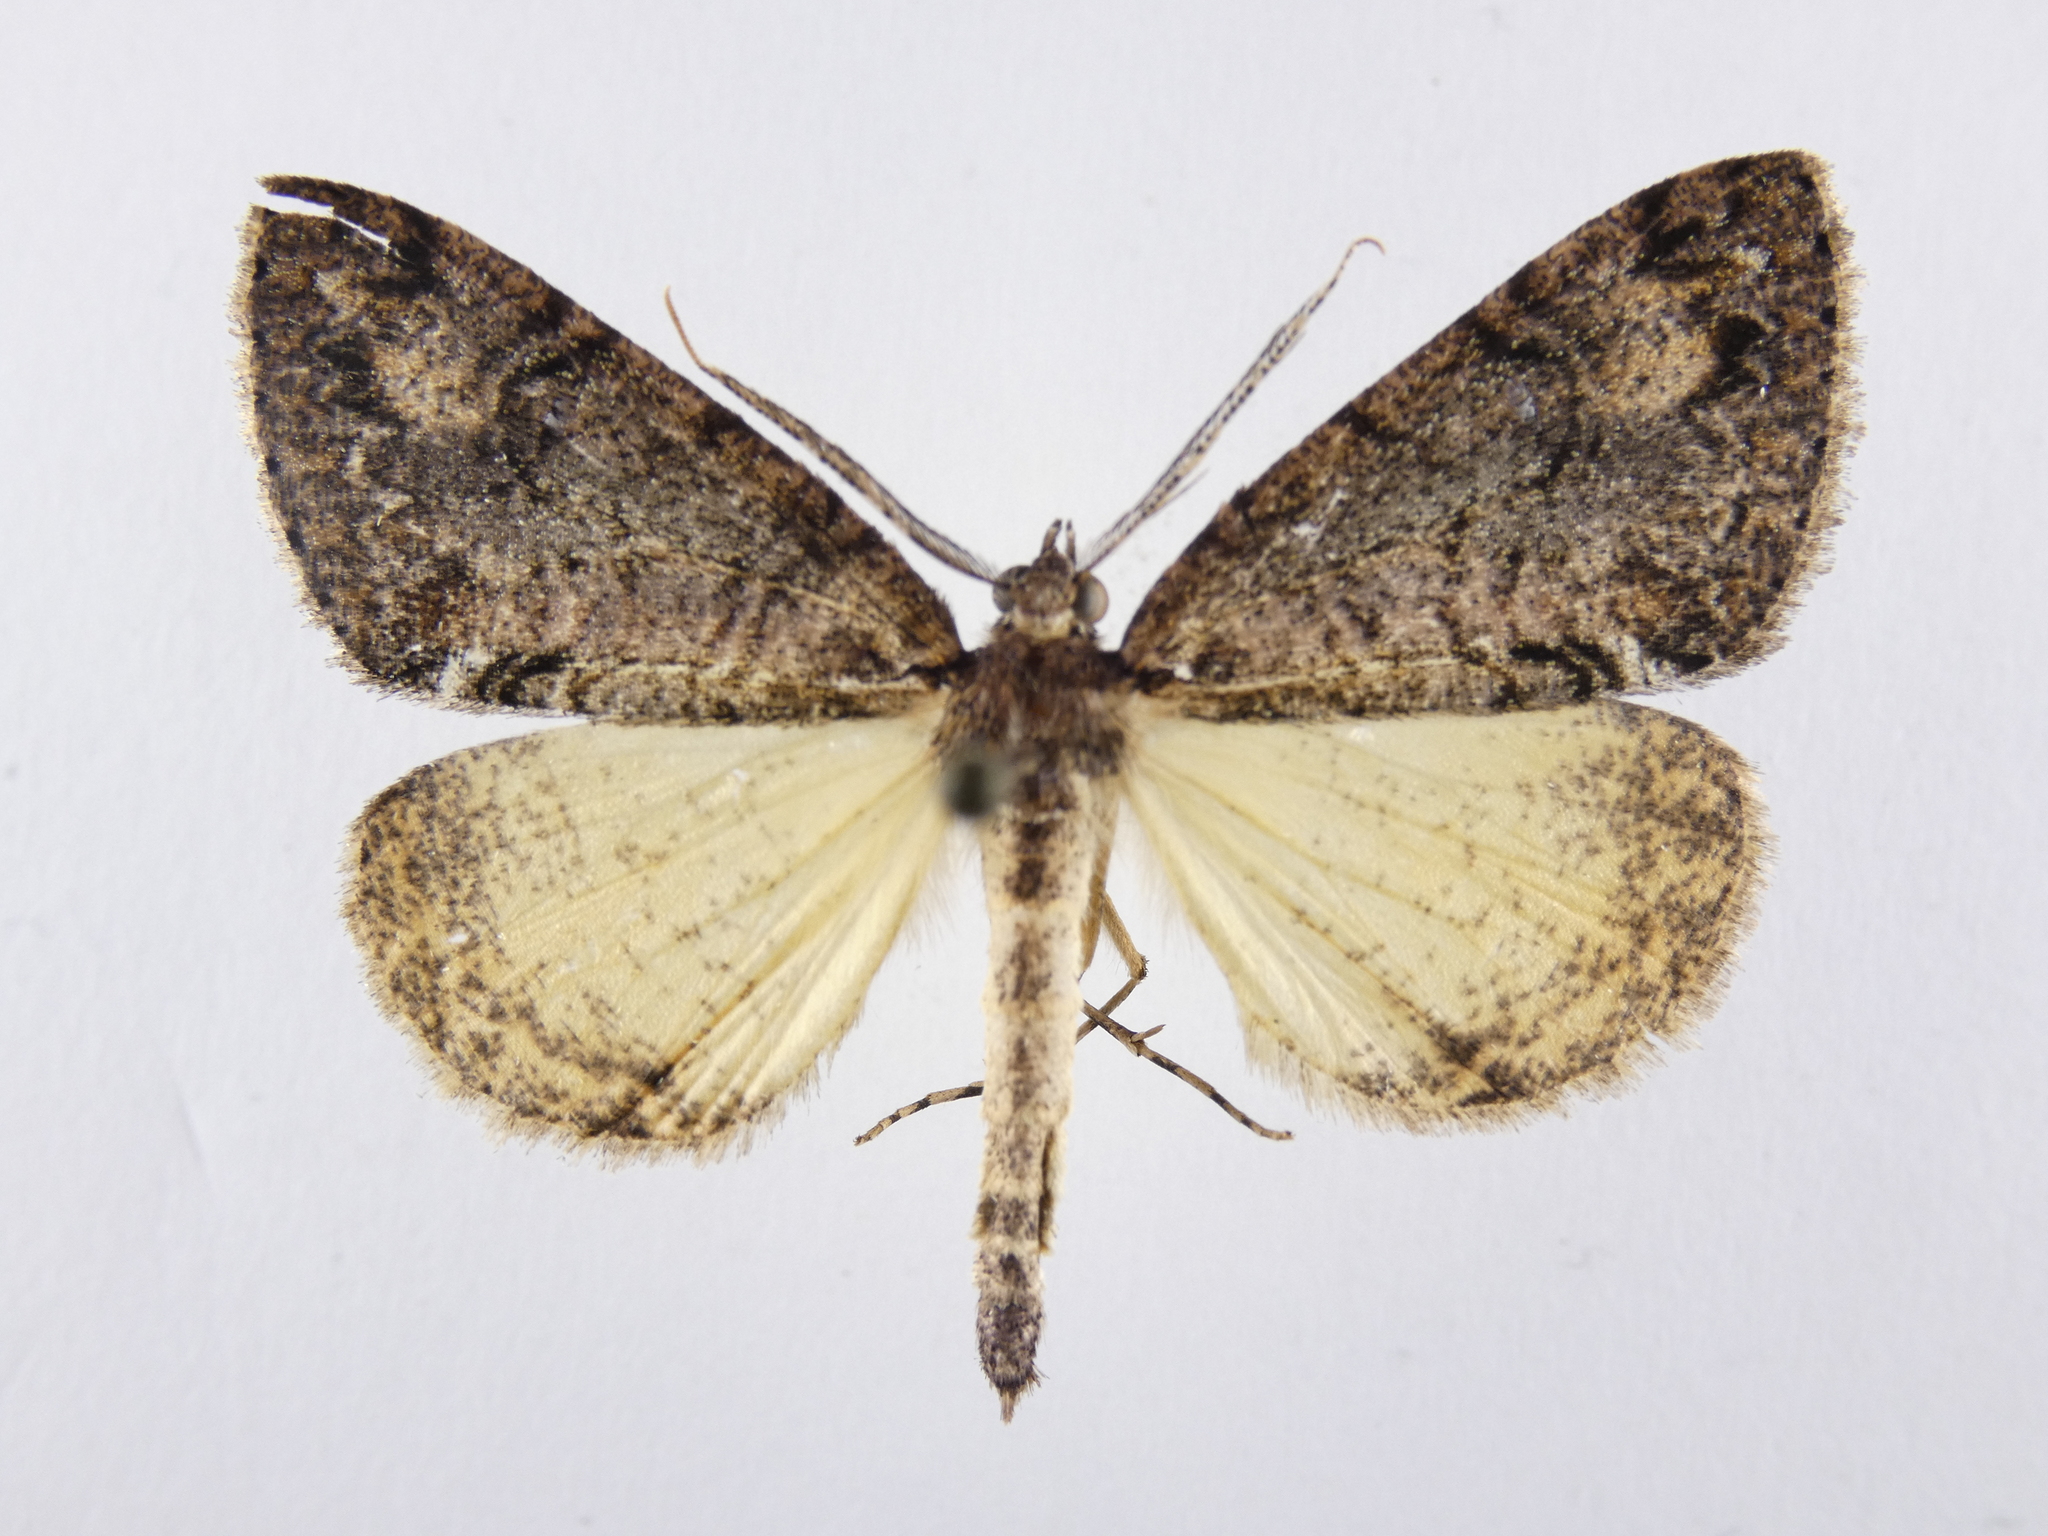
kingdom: Animalia
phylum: Arthropoda
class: Insecta
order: Lepidoptera
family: Geometridae
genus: Pseudocoremia
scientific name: Pseudocoremia suavis
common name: Common forest looper
